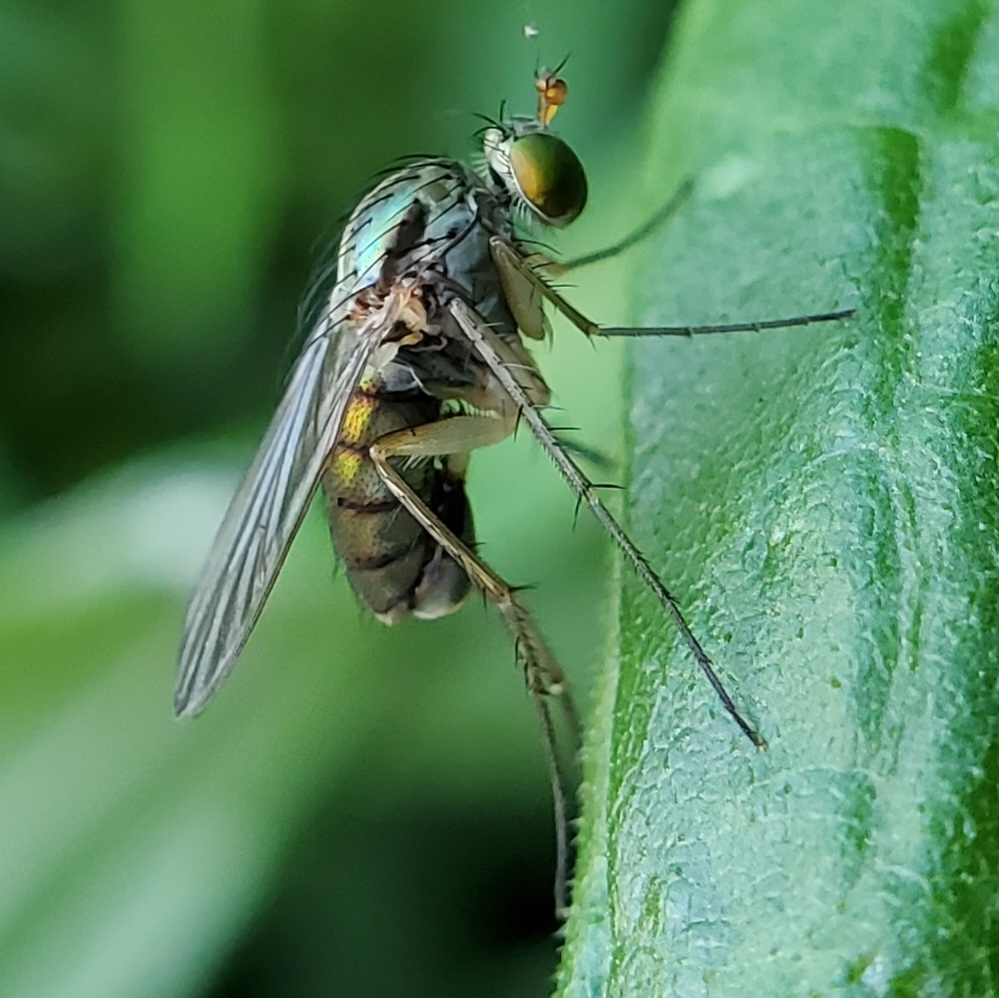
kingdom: Animalia
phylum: Arthropoda
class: Insecta
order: Diptera
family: Dolichopodidae
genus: Dolichopus
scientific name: Dolichopus scapularis
